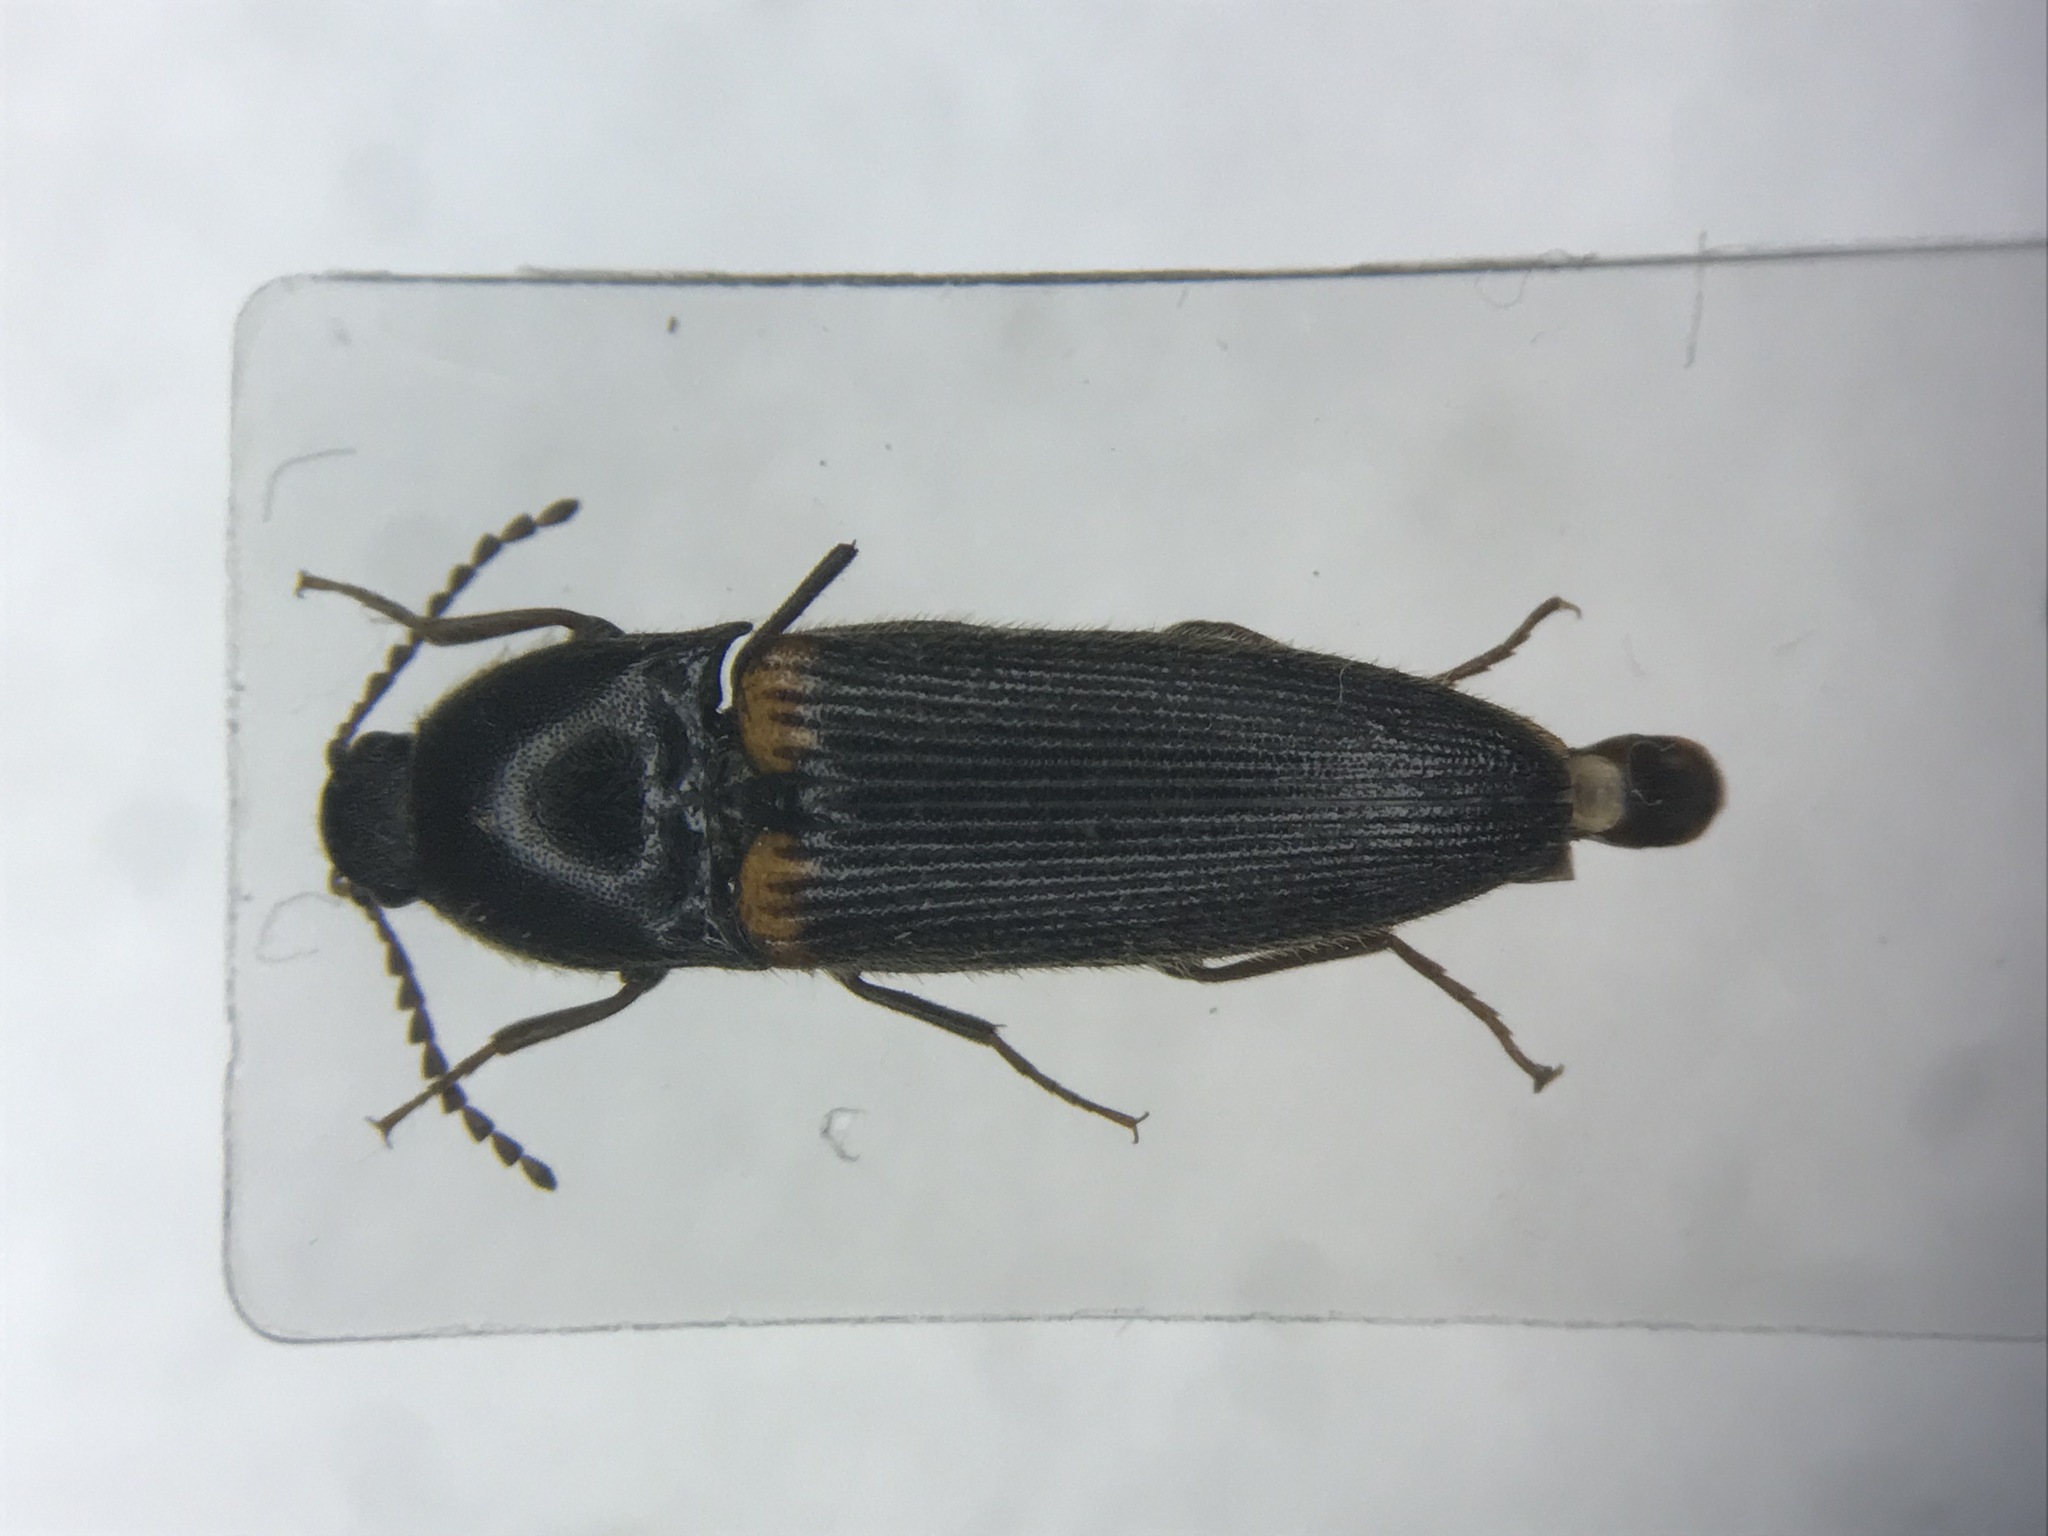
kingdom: Animalia
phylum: Arthropoda
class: Insecta
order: Coleoptera
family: Elateridae
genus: Ampedus
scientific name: Ampedus protervus
